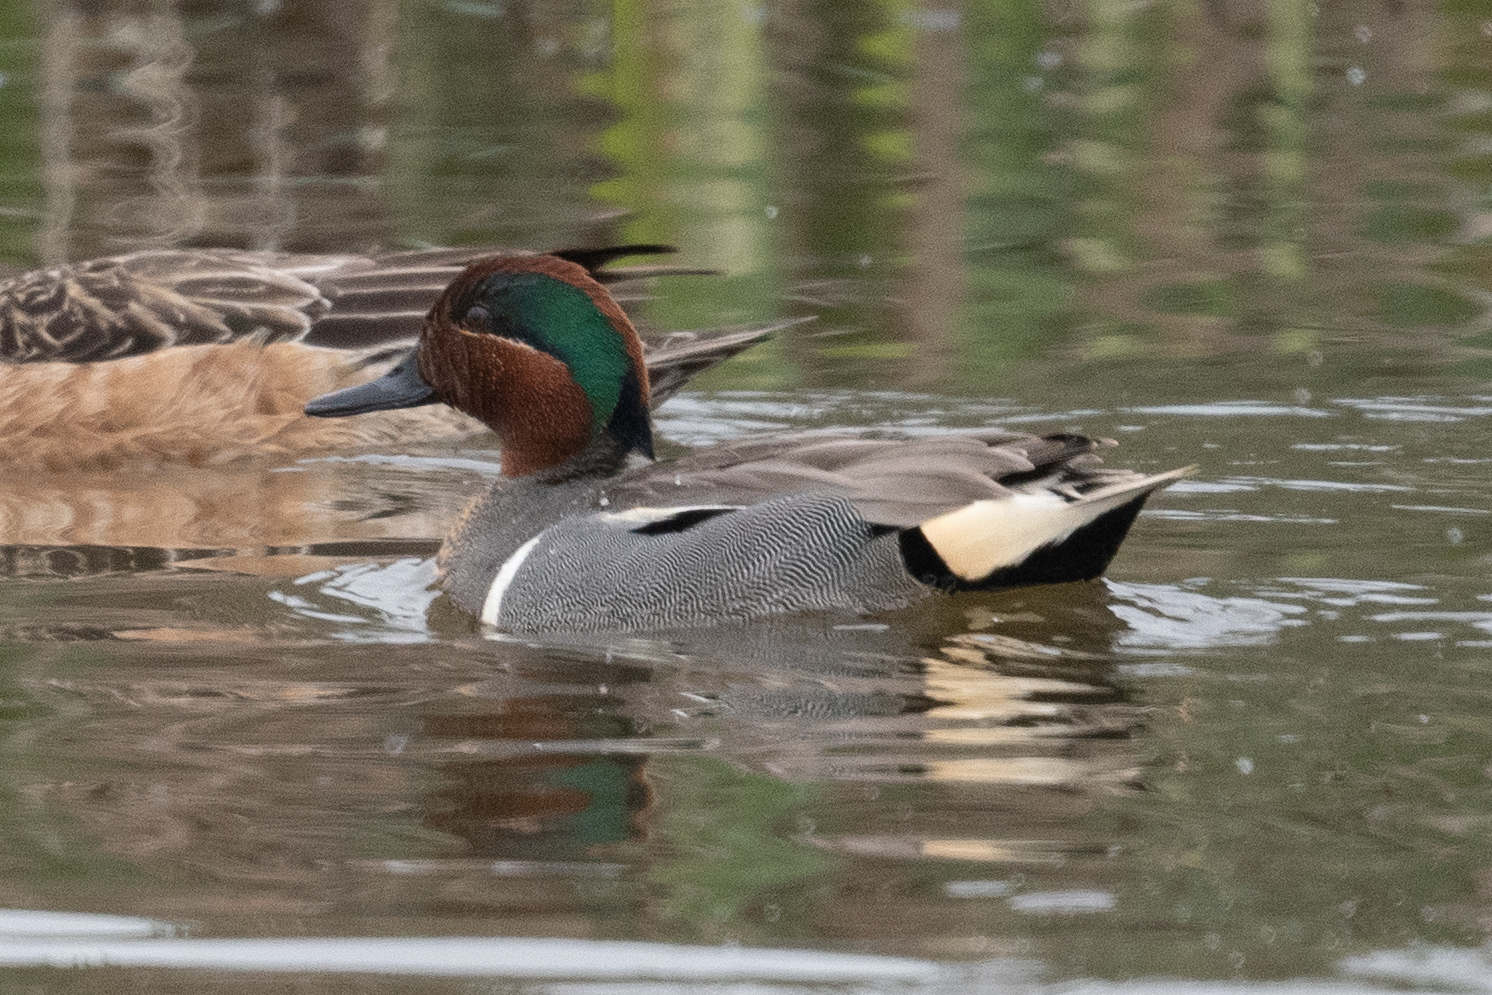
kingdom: Animalia
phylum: Chordata
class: Aves
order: Anseriformes
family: Anatidae
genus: Anas
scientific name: Anas crecca
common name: Eurasian teal
